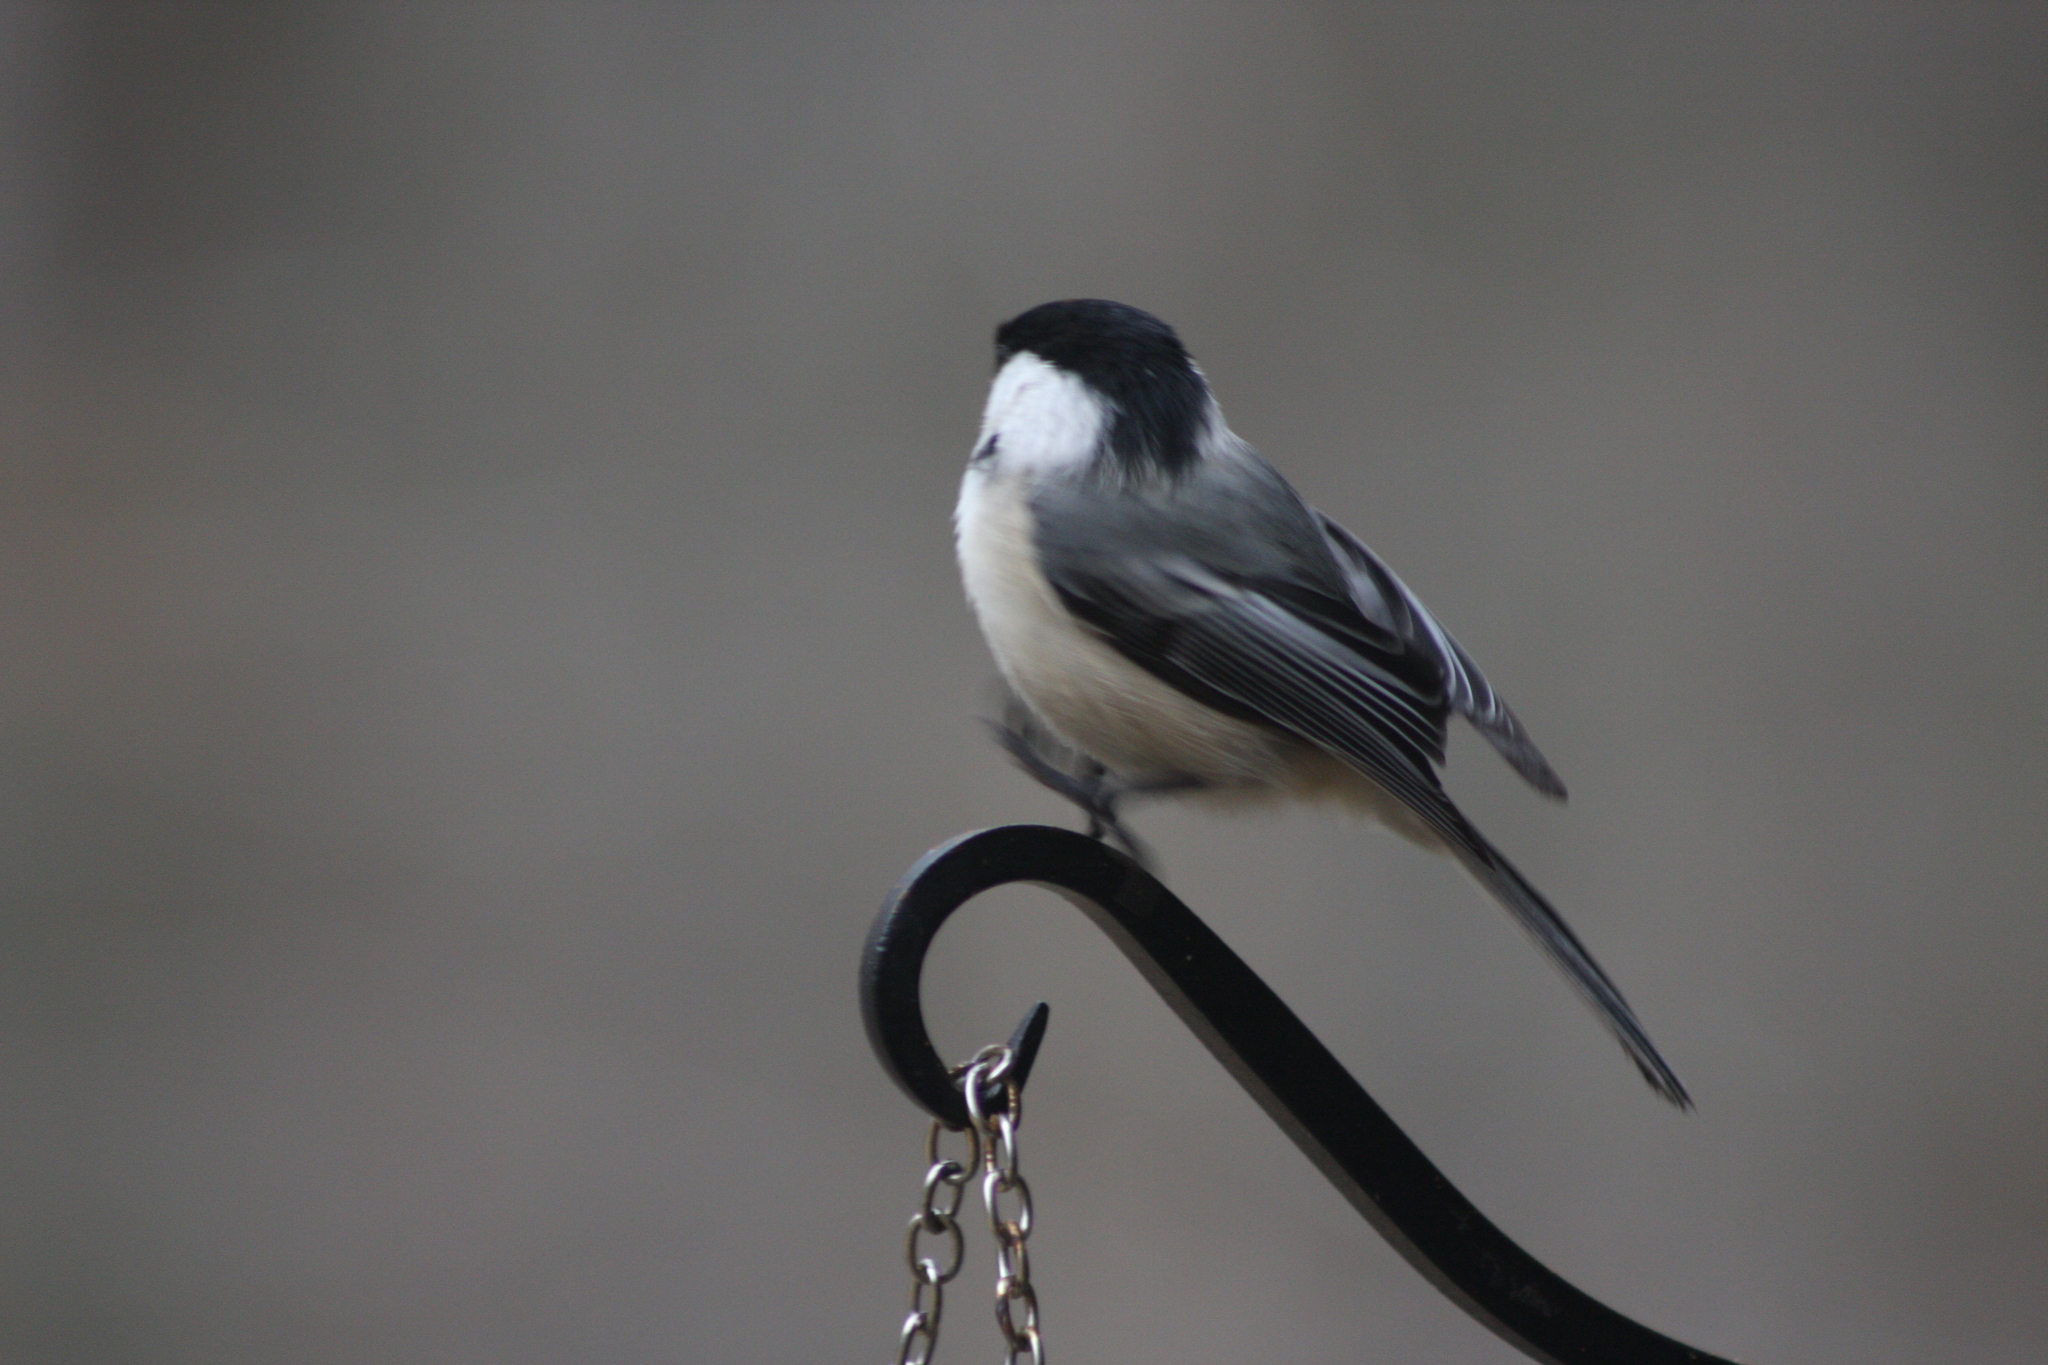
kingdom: Animalia
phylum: Chordata
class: Aves
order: Passeriformes
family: Paridae
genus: Poecile
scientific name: Poecile atricapillus
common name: Black-capped chickadee
